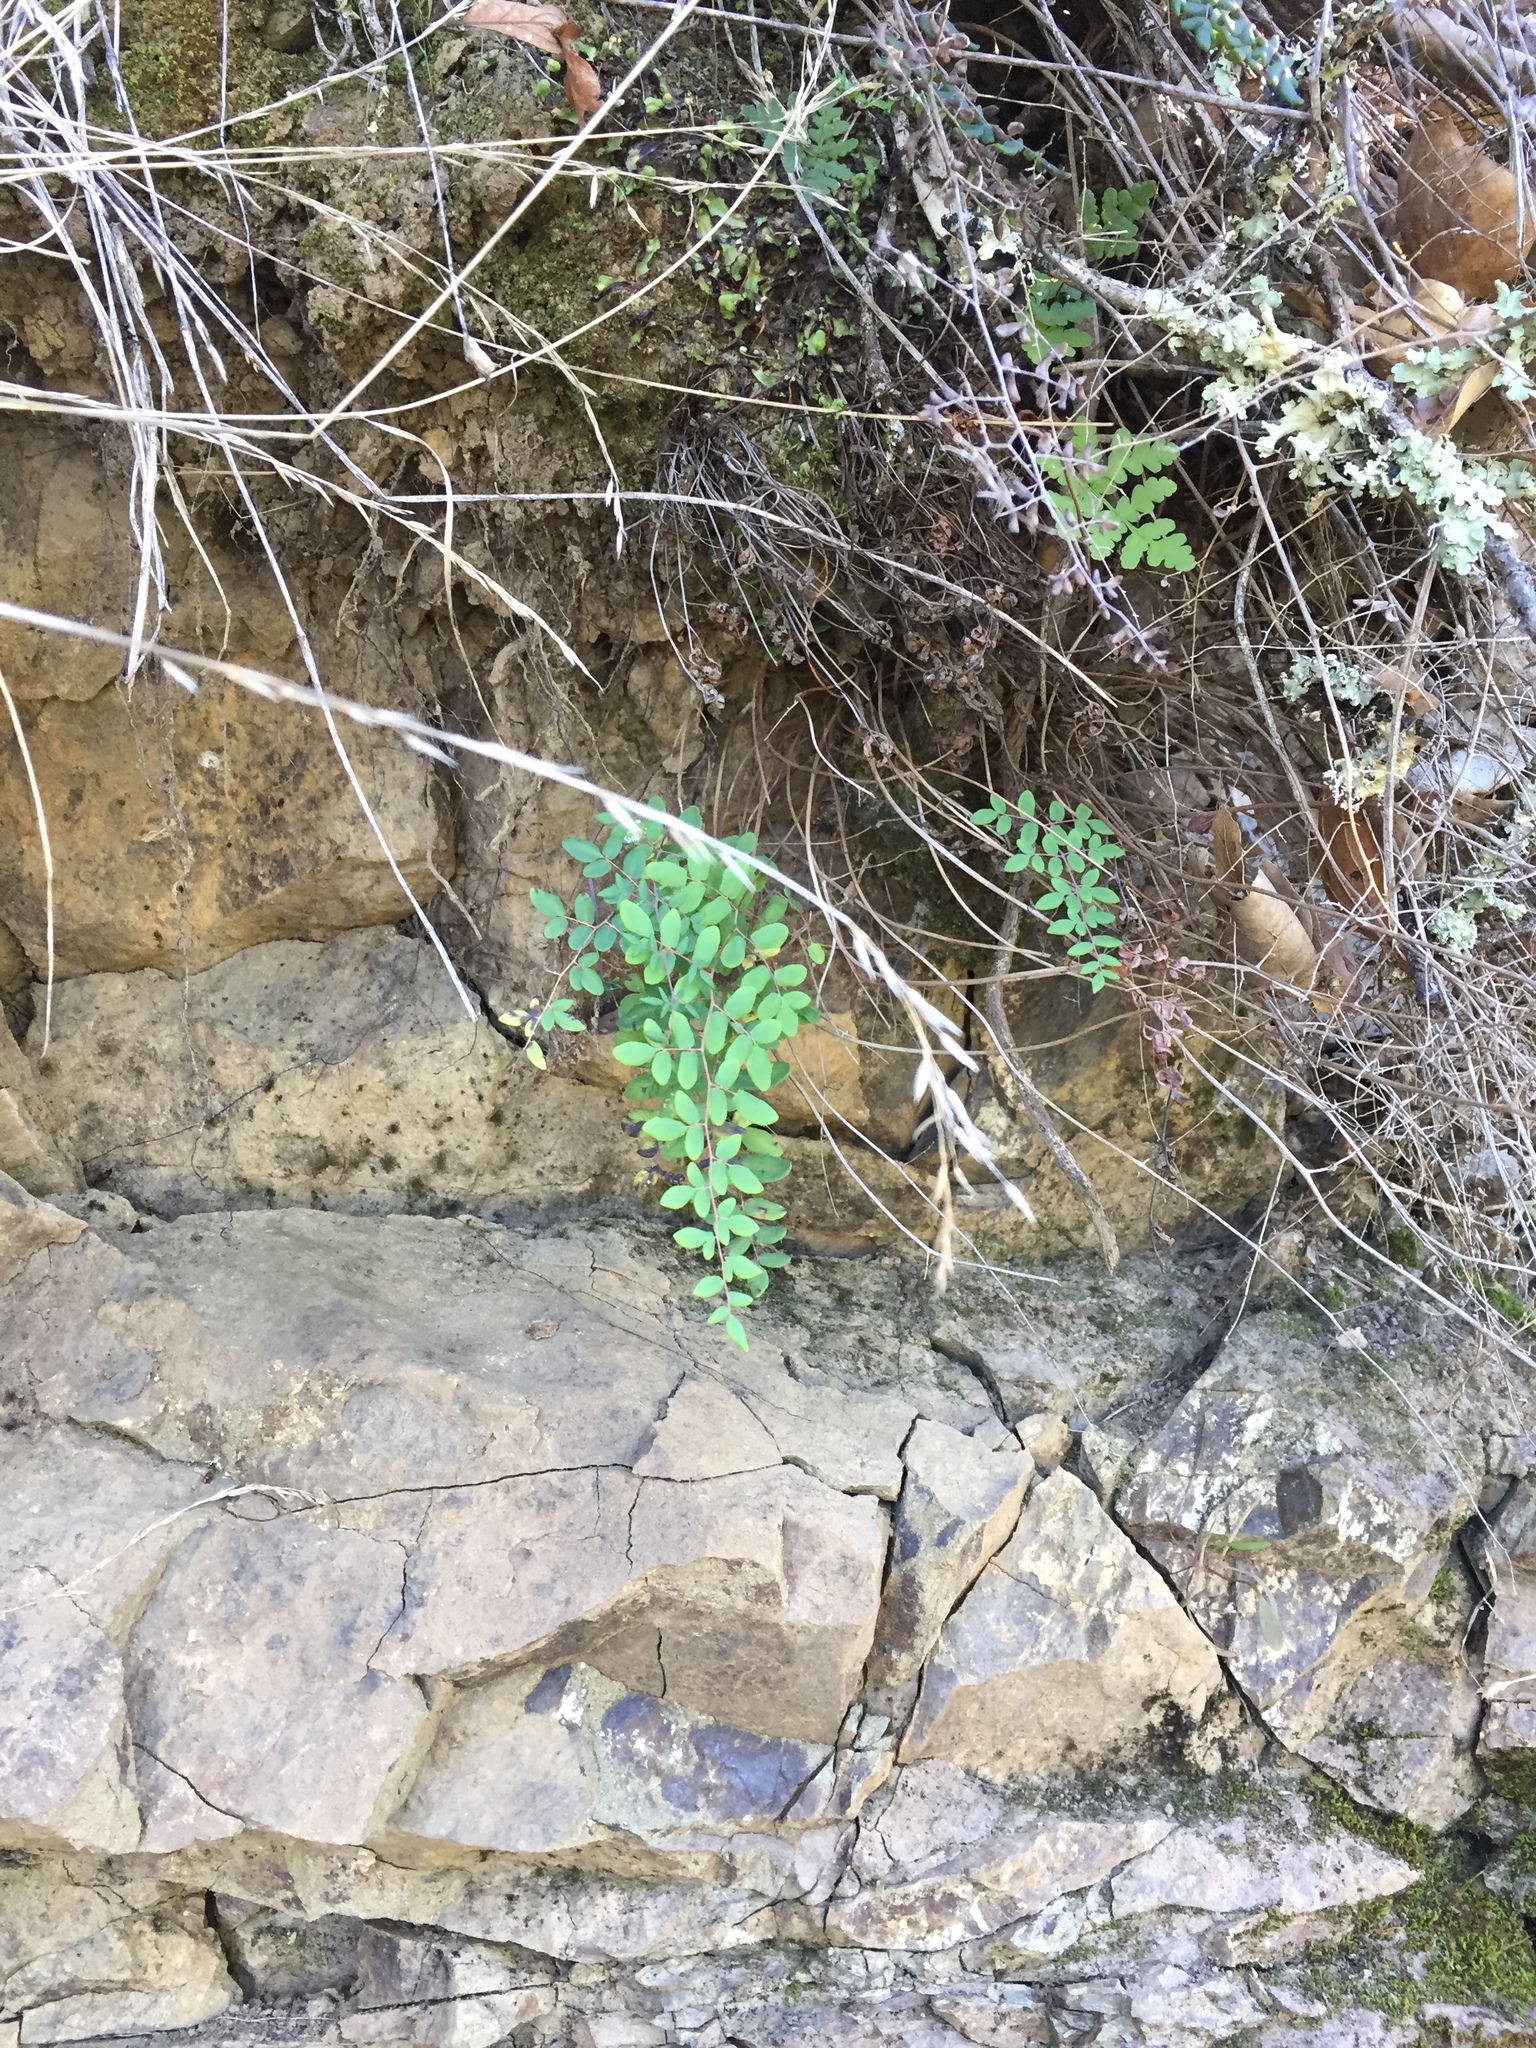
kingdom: Plantae
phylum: Tracheophyta
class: Polypodiopsida
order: Polypodiales
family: Pteridaceae
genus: Pellaea
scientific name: Pellaea andromedifolia
